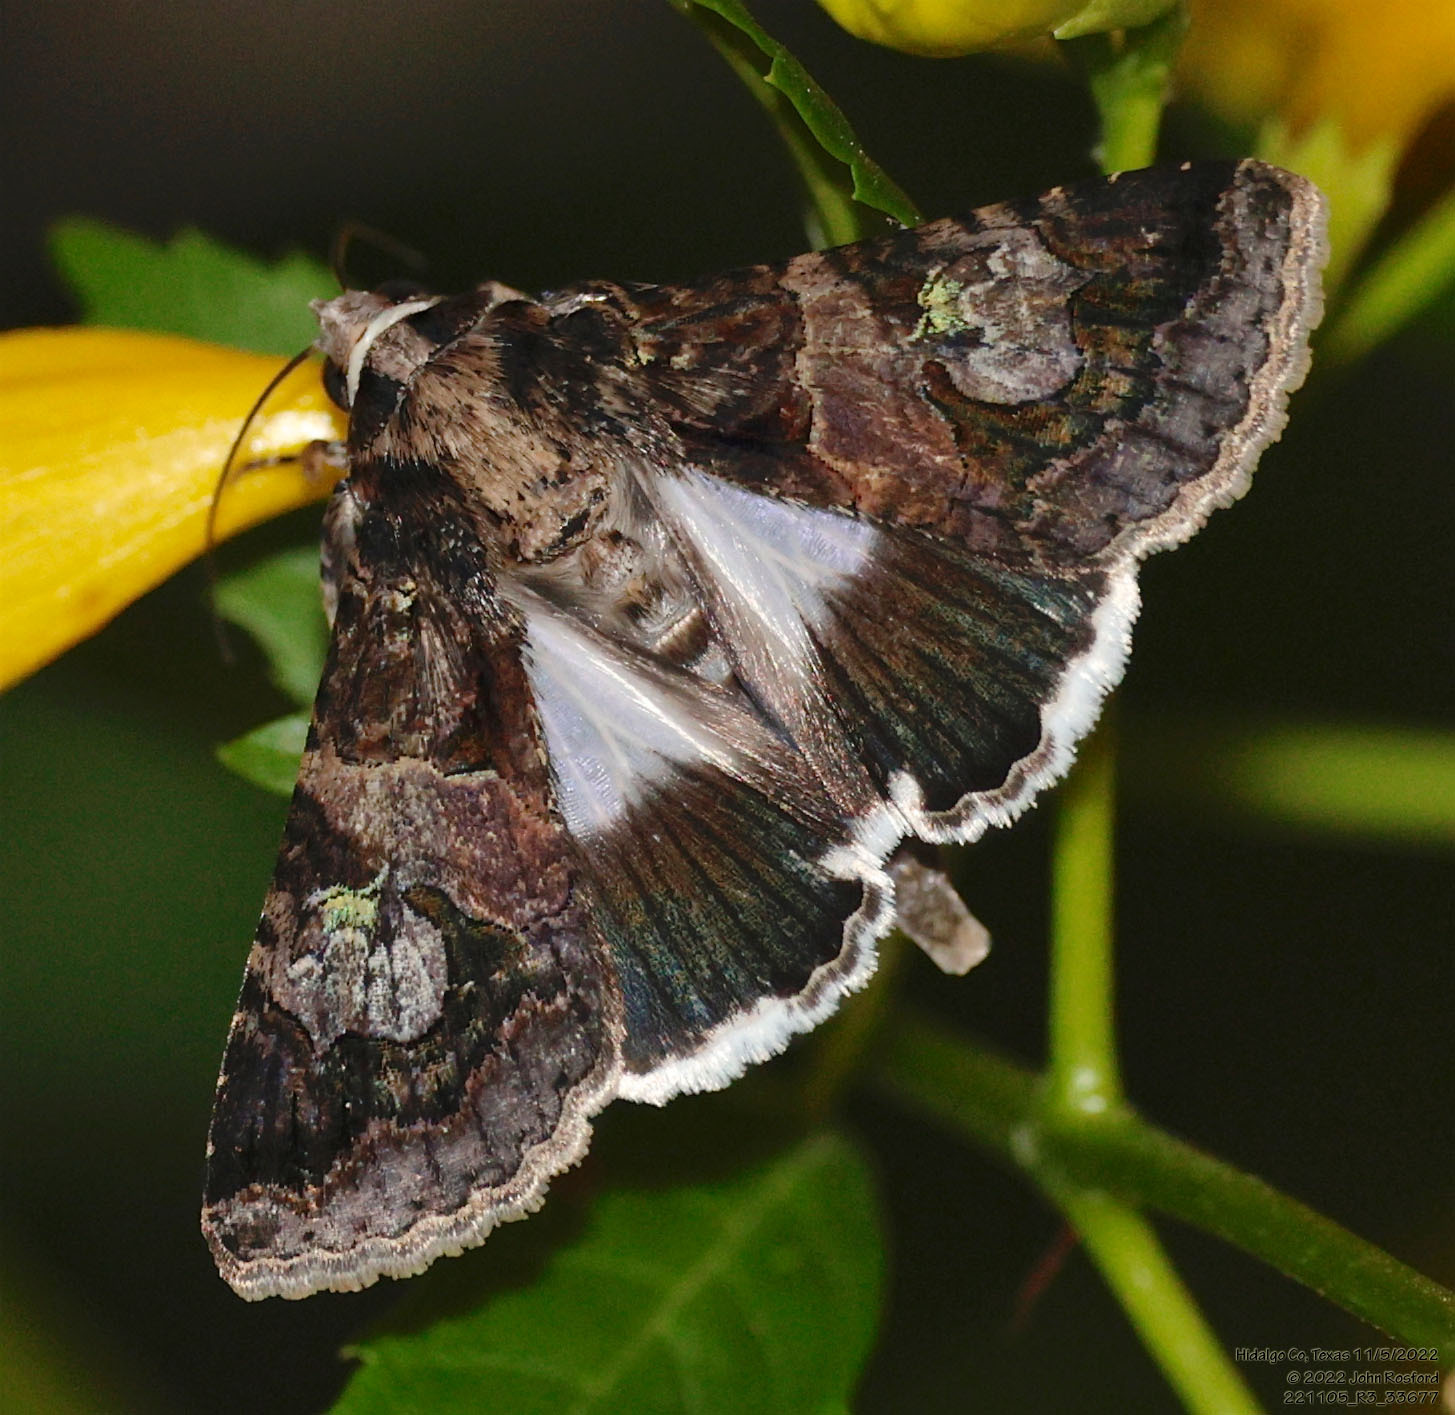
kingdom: Animalia
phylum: Arthropoda
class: Insecta
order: Lepidoptera
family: Erebidae
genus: Melipotis
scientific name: Melipotis famelica
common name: Famelica melipotis moth
